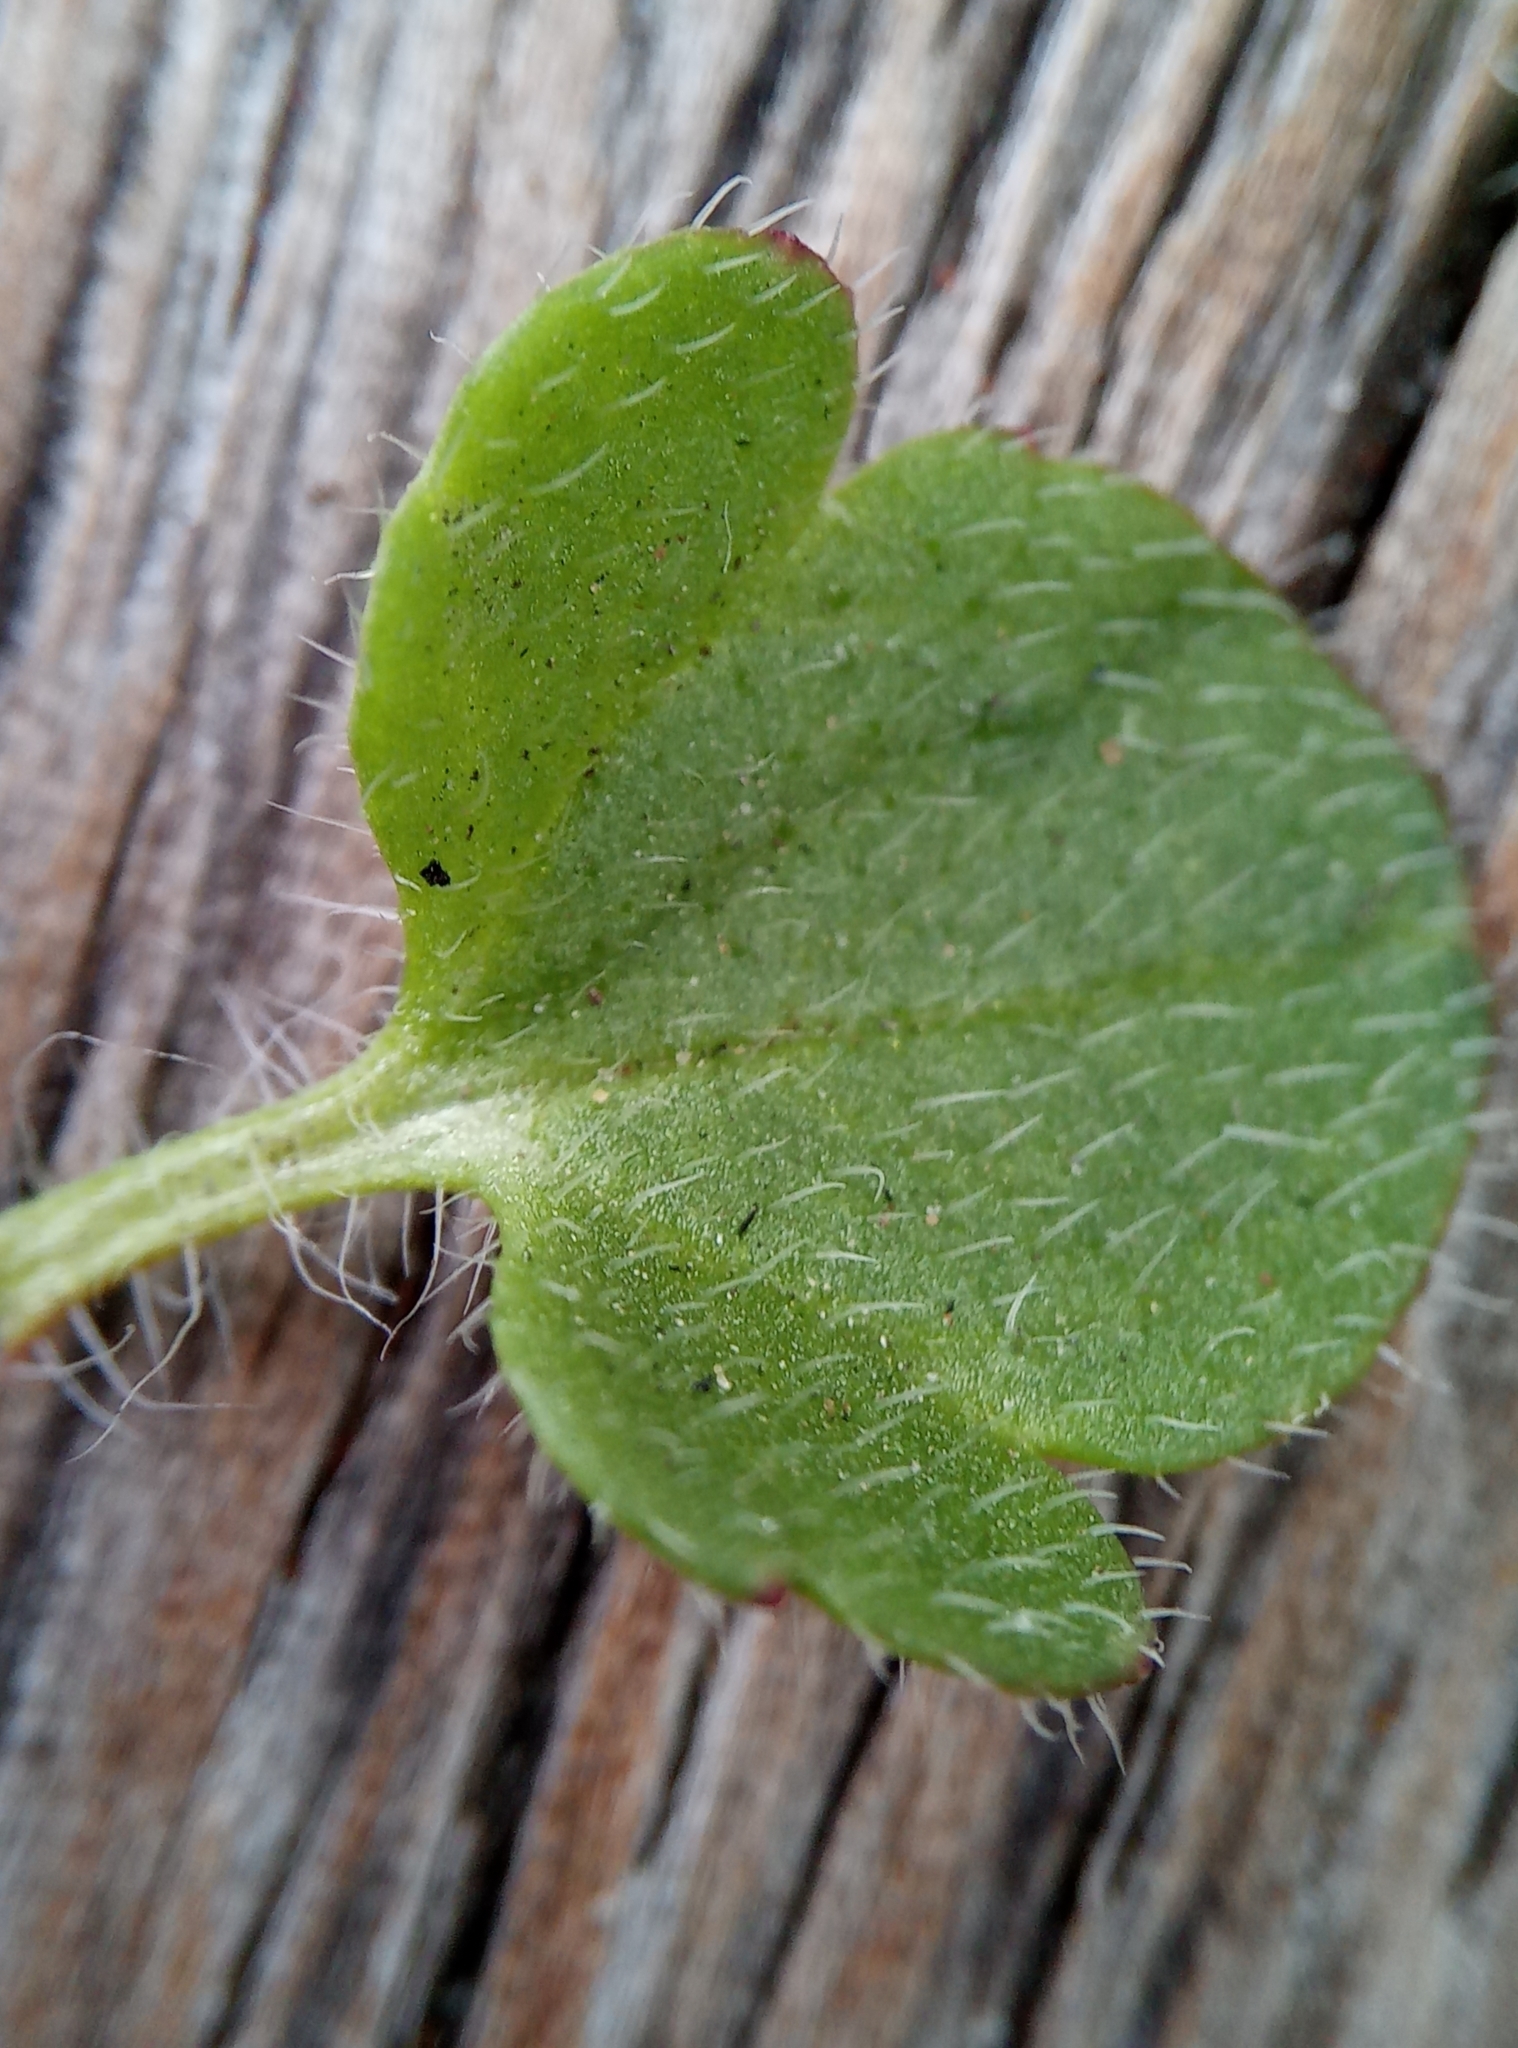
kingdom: Plantae
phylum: Tracheophyta
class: Magnoliopsida
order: Lamiales
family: Plantaginaceae
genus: Veronica
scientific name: Veronica hederifolia
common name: Ivy-leaved speedwell
